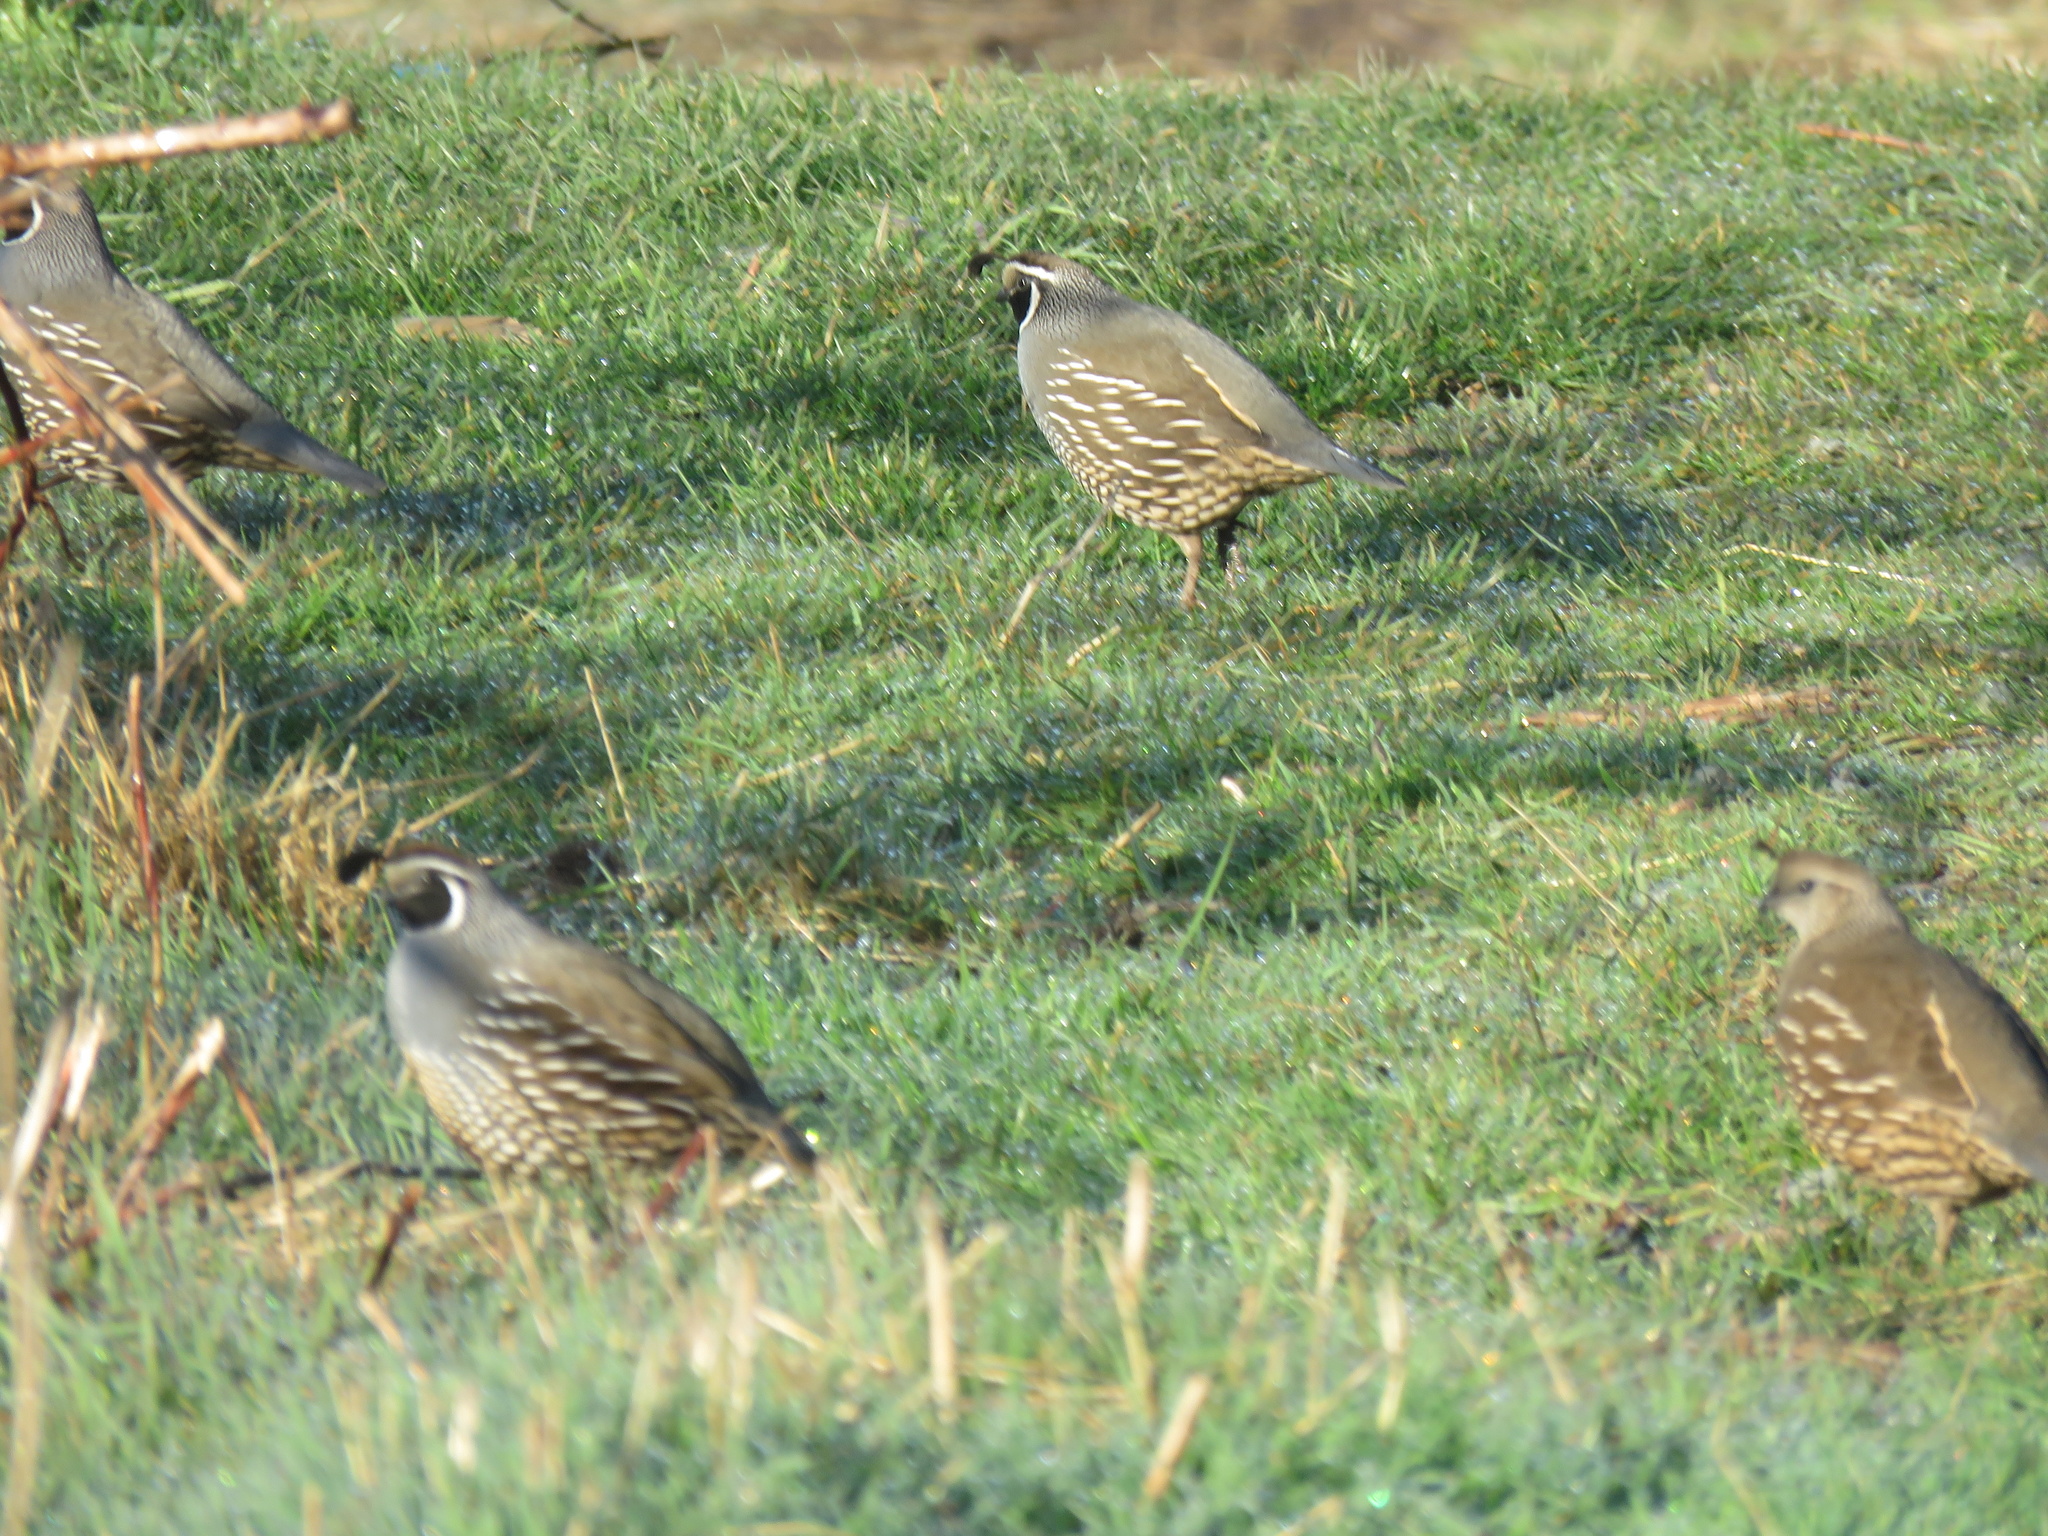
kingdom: Animalia
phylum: Chordata
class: Aves
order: Galliformes
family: Odontophoridae
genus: Callipepla
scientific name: Callipepla californica
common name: California quail
